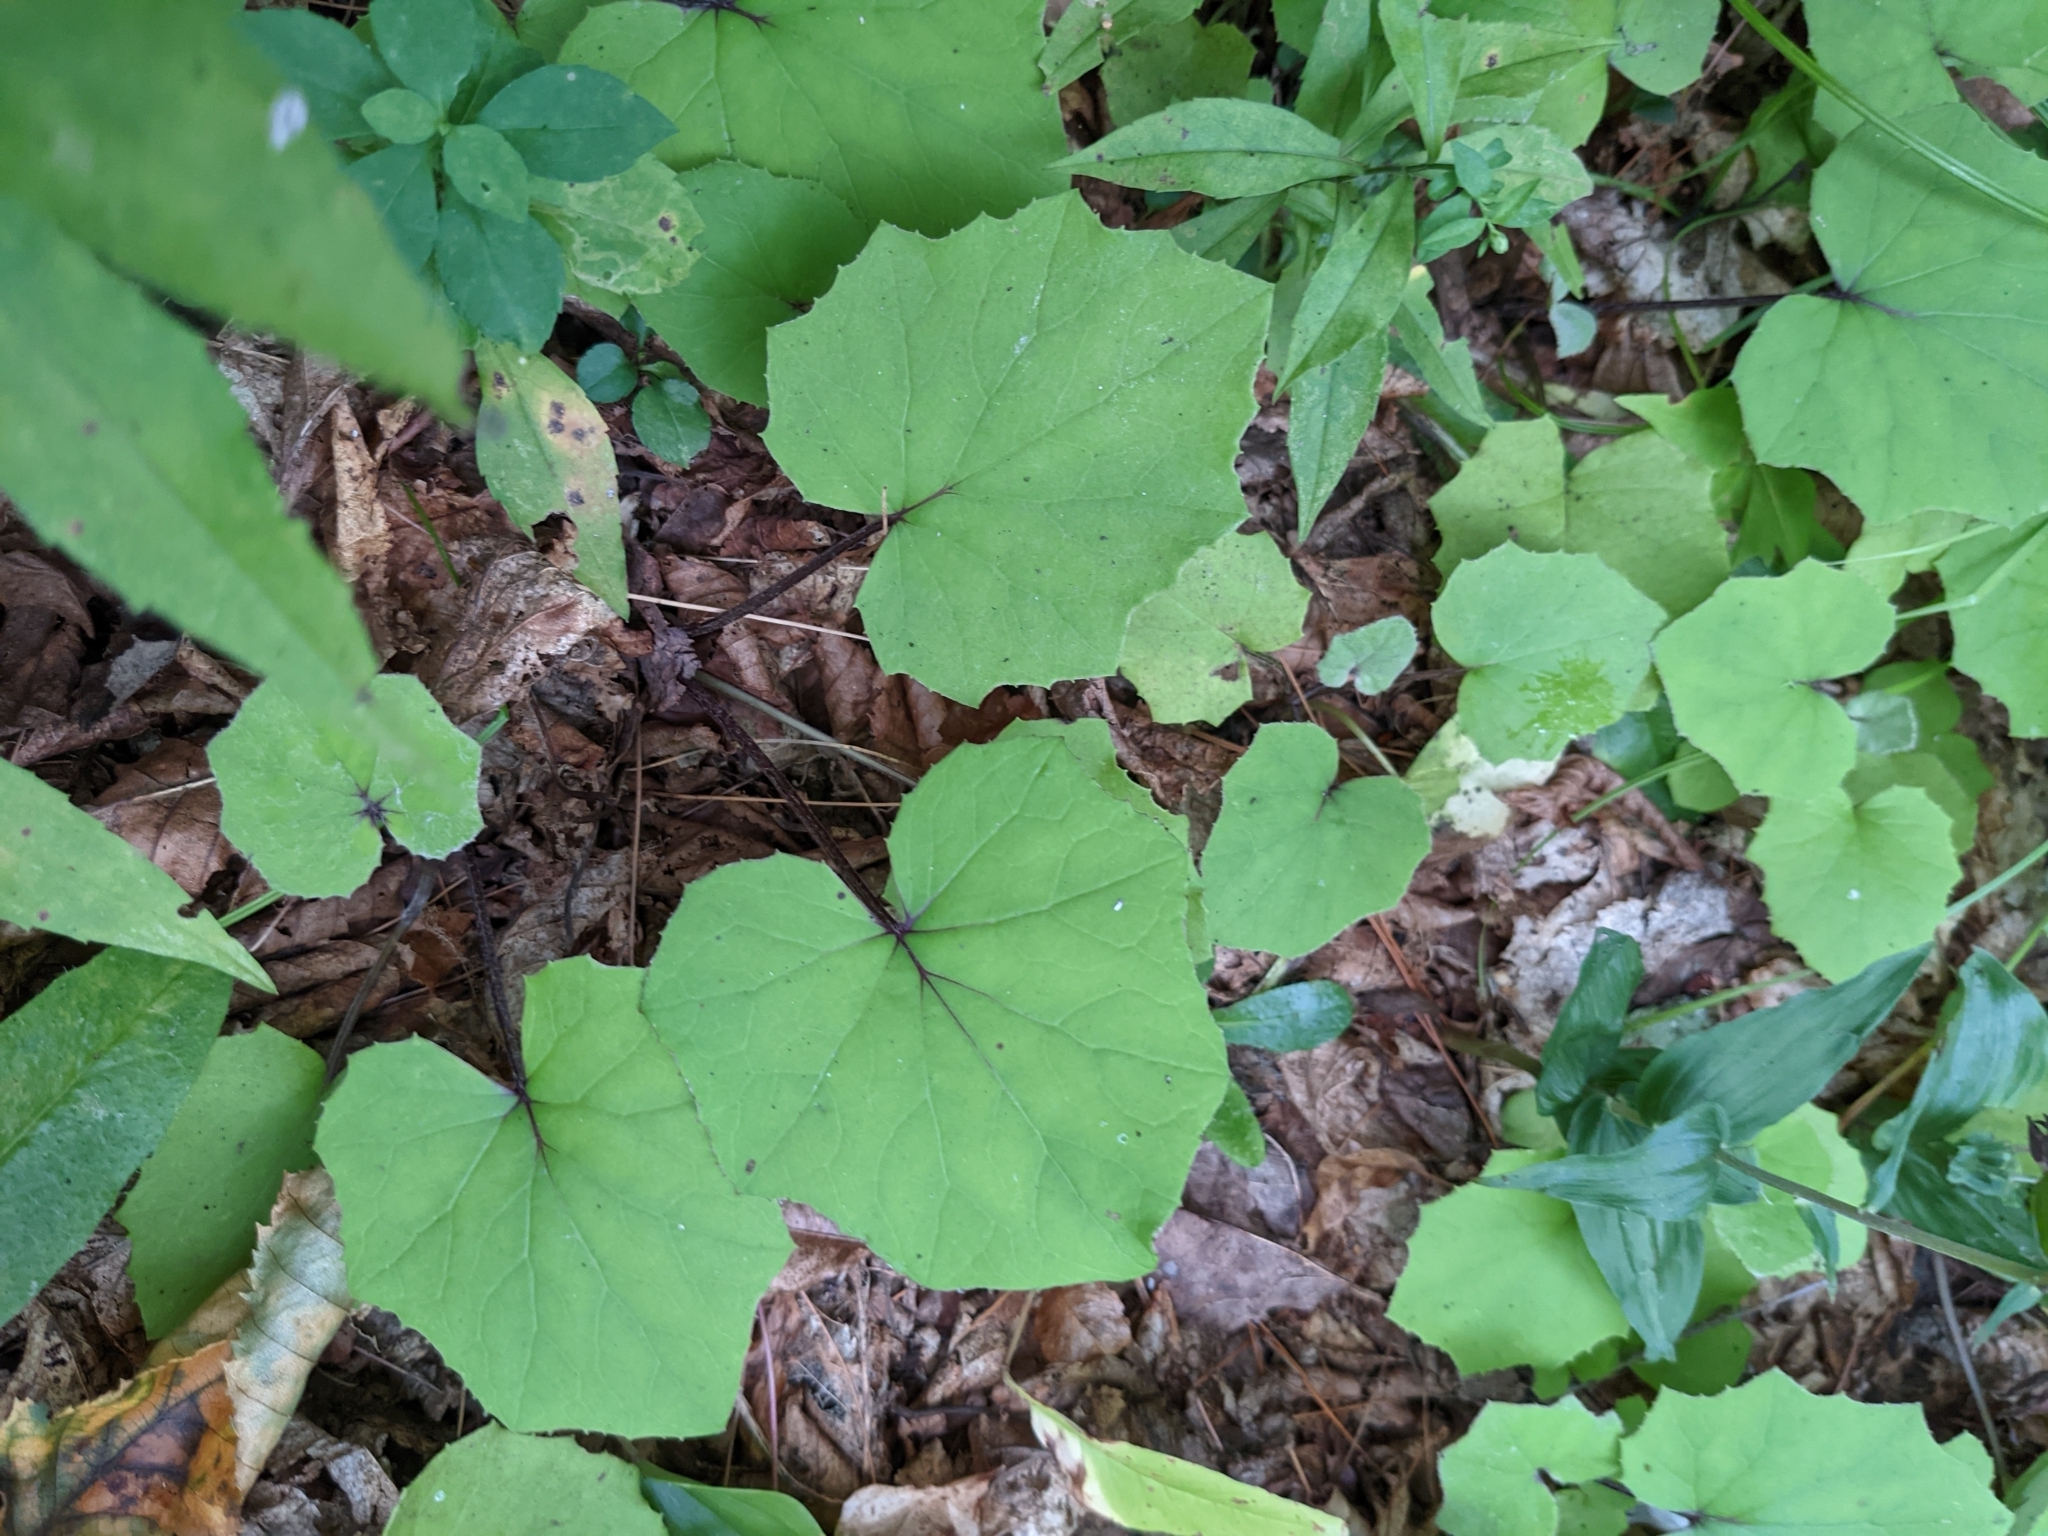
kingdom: Plantae
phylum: Tracheophyta
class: Magnoliopsida
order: Asterales
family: Asteraceae
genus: Tussilago
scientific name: Tussilago farfara
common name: Coltsfoot
